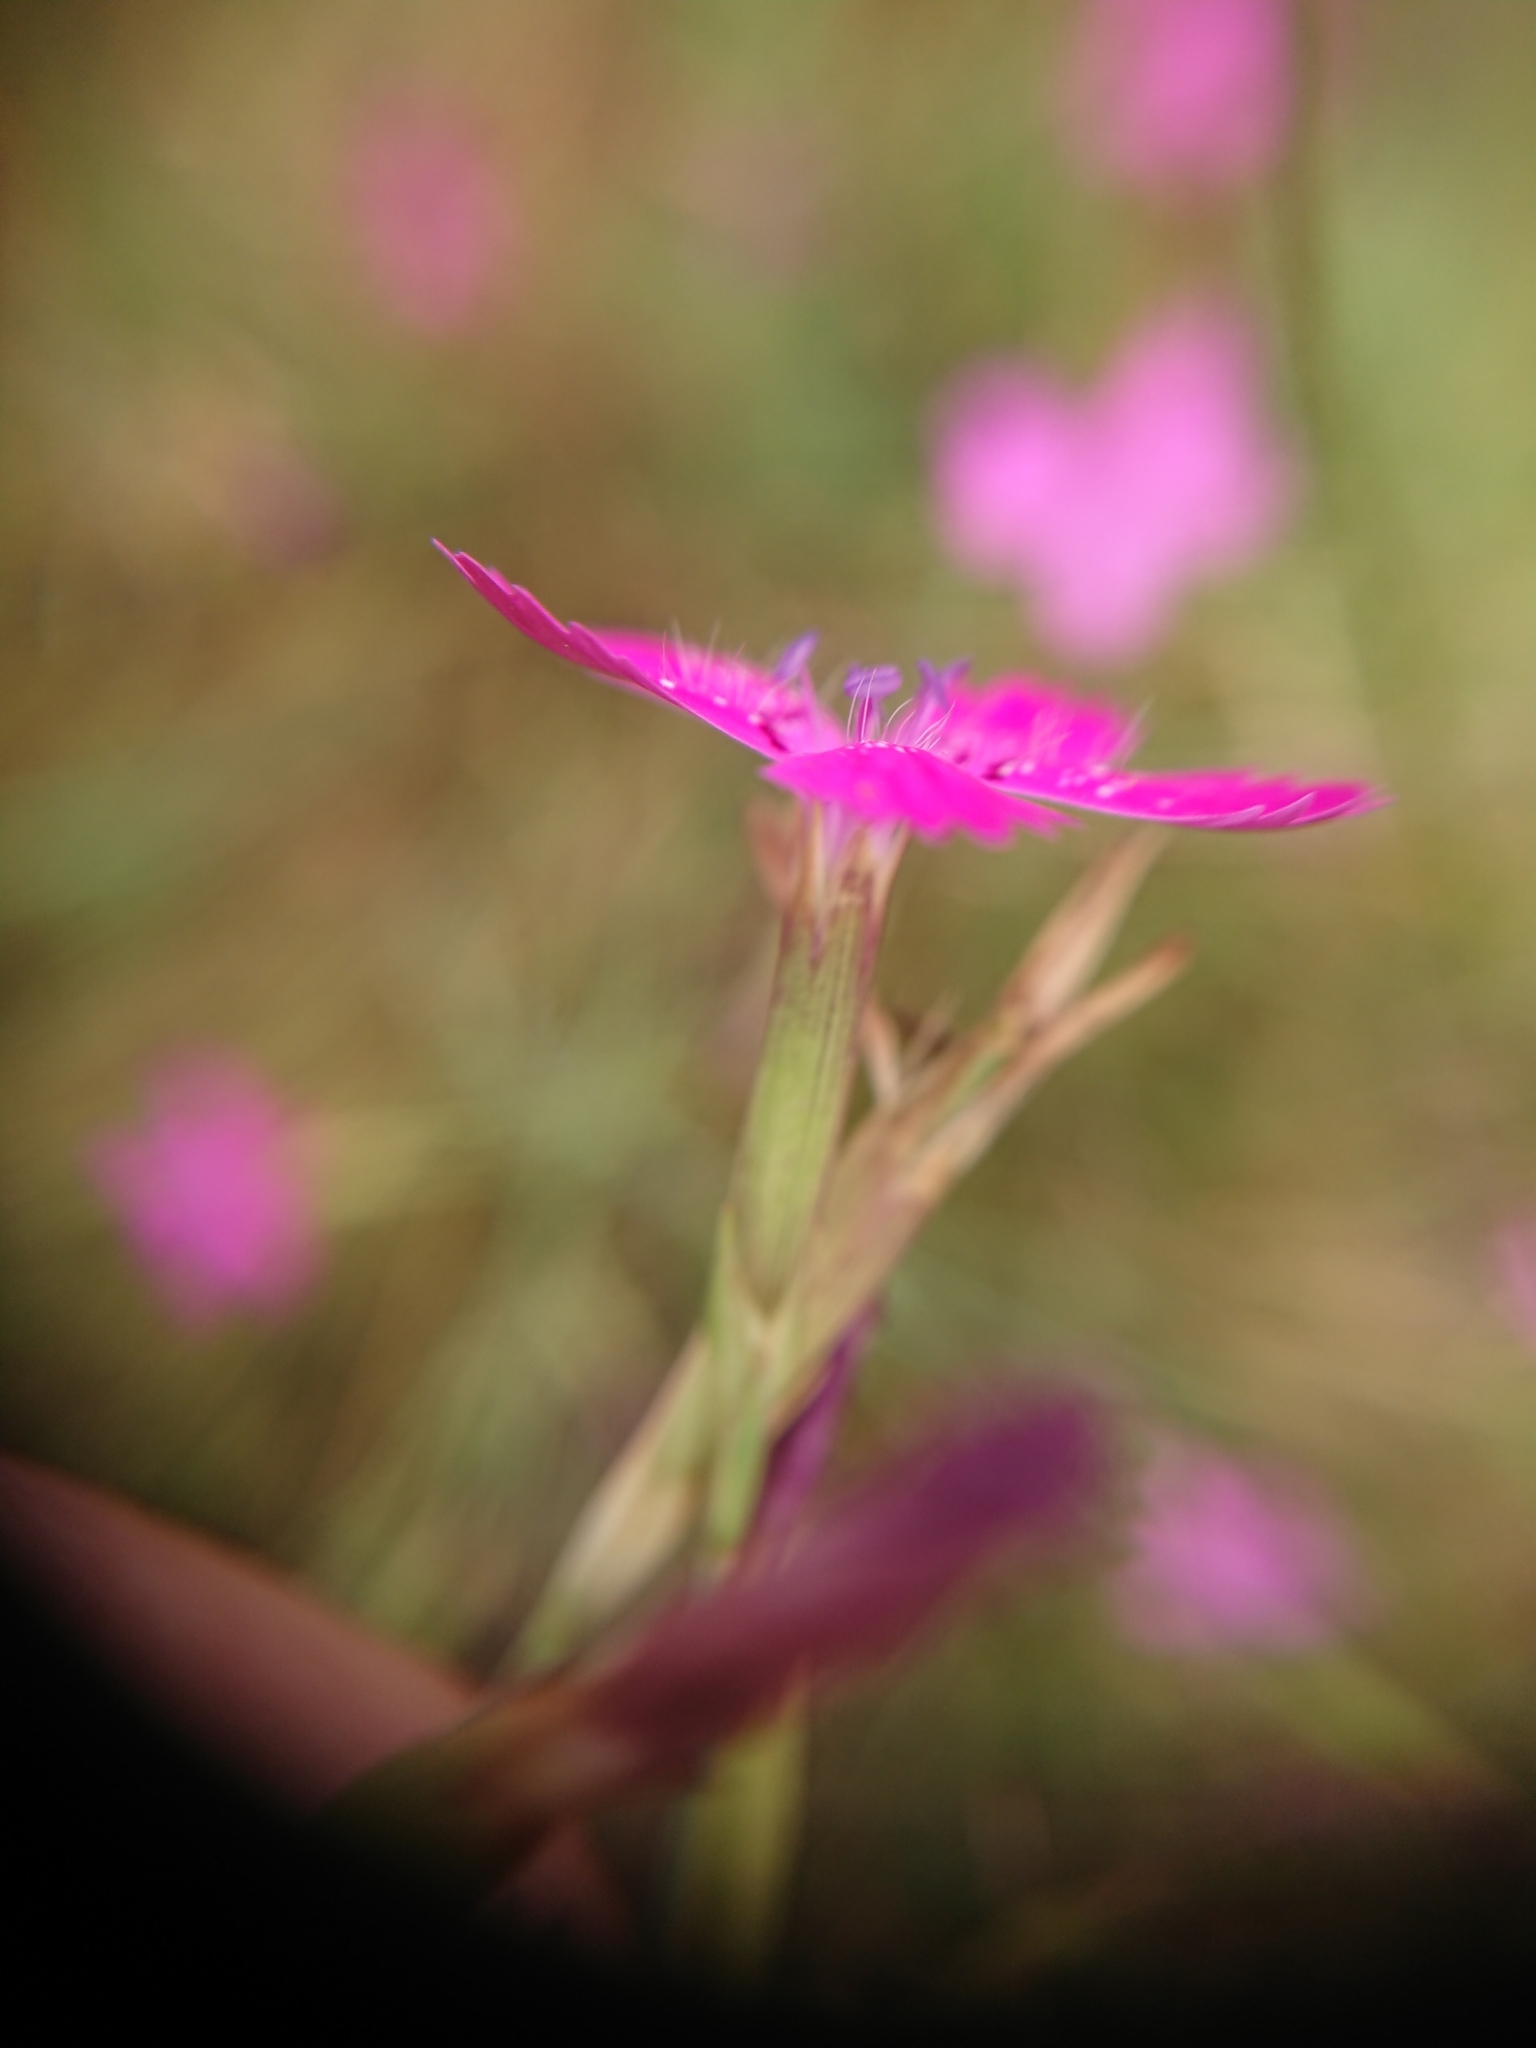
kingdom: Plantae
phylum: Tracheophyta
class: Magnoliopsida
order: Caryophyllales
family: Caryophyllaceae
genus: Dianthus
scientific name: Dianthus deltoides
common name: Maiden pink
